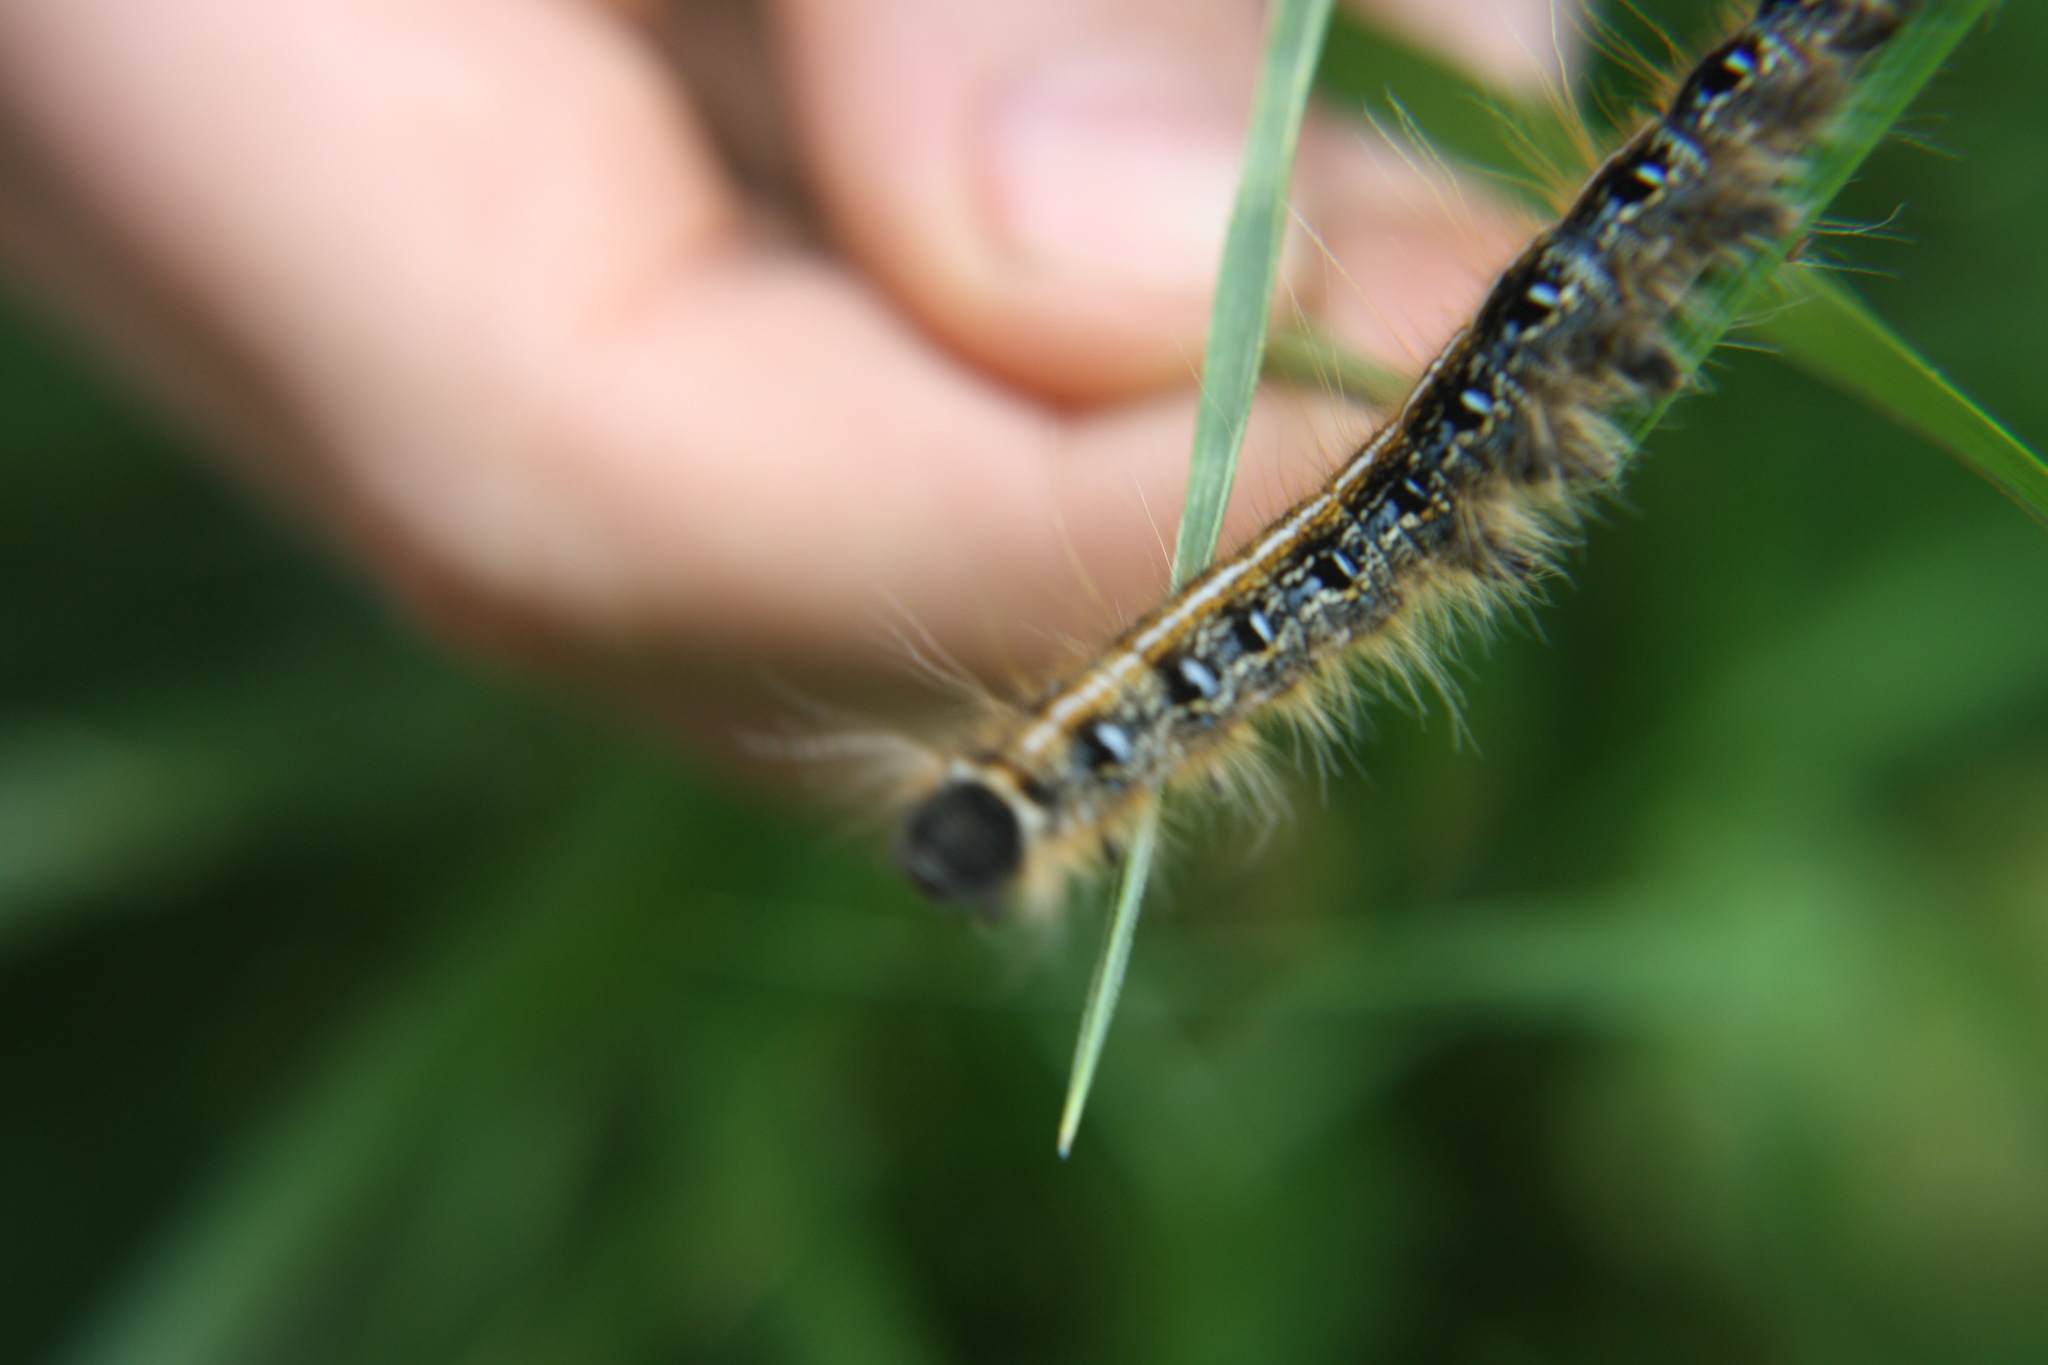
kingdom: Animalia
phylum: Arthropoda
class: Insecta
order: Lepidoptera
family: Lasiocampidae
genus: Malacosoma
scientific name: Malacosoma americana
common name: Eastern tent caterpillar moth
